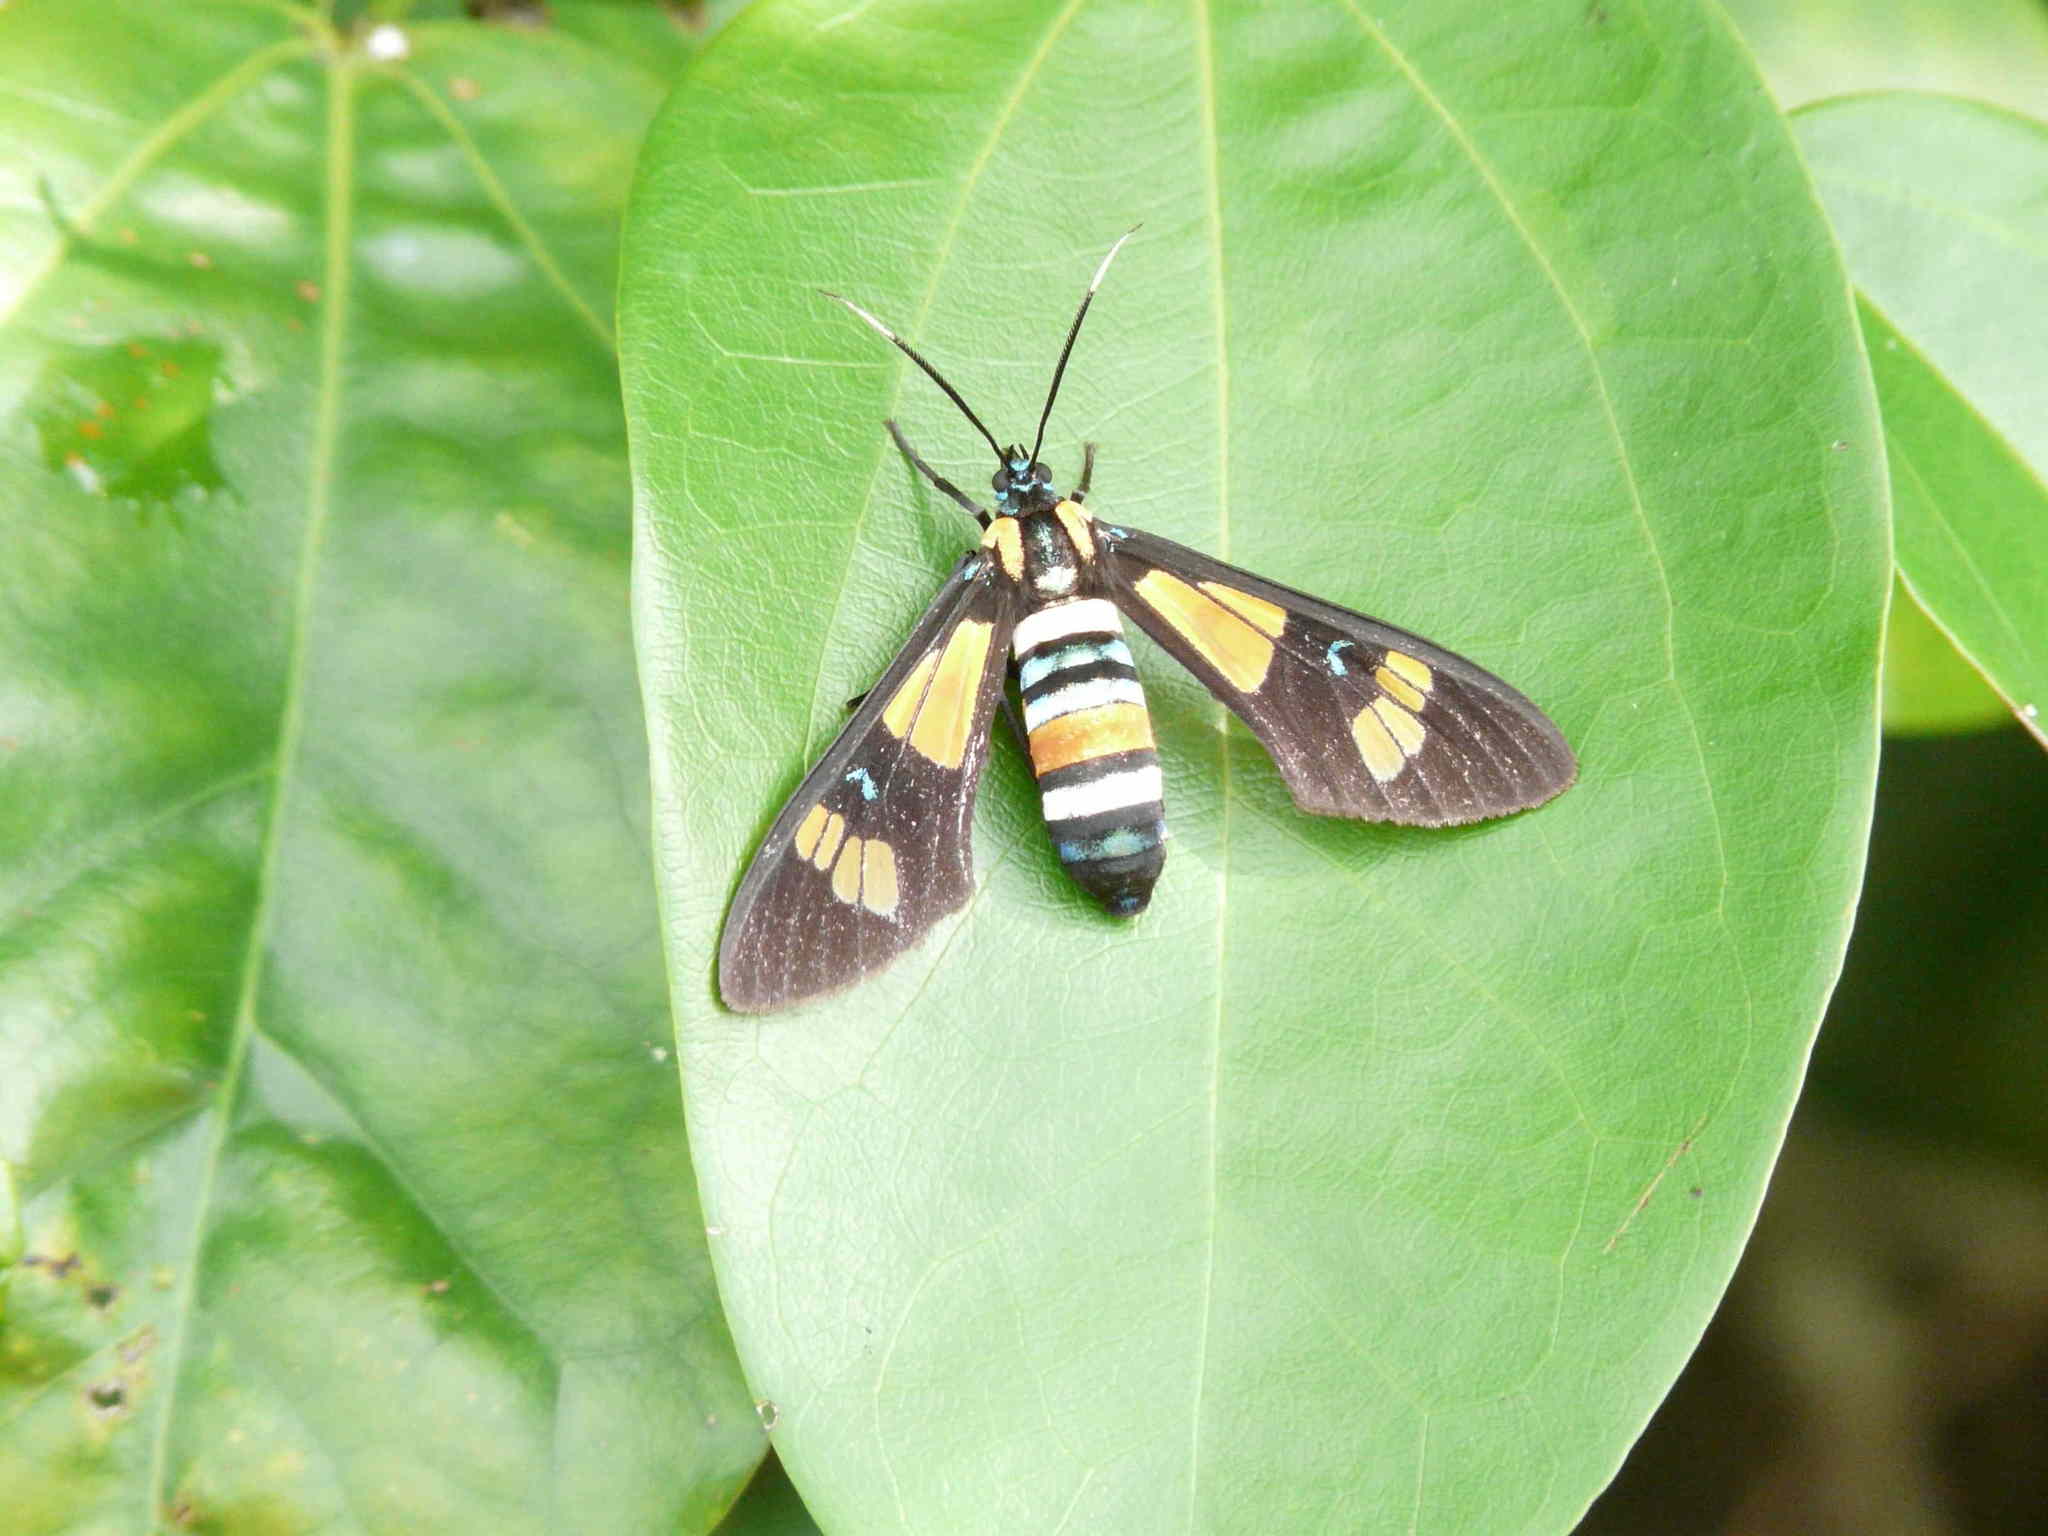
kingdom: Animalia
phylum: Arthropoda
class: Insecta
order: Lepidoptera
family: Erebidae
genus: Euchromia
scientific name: Euchromia lethe
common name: Basker
